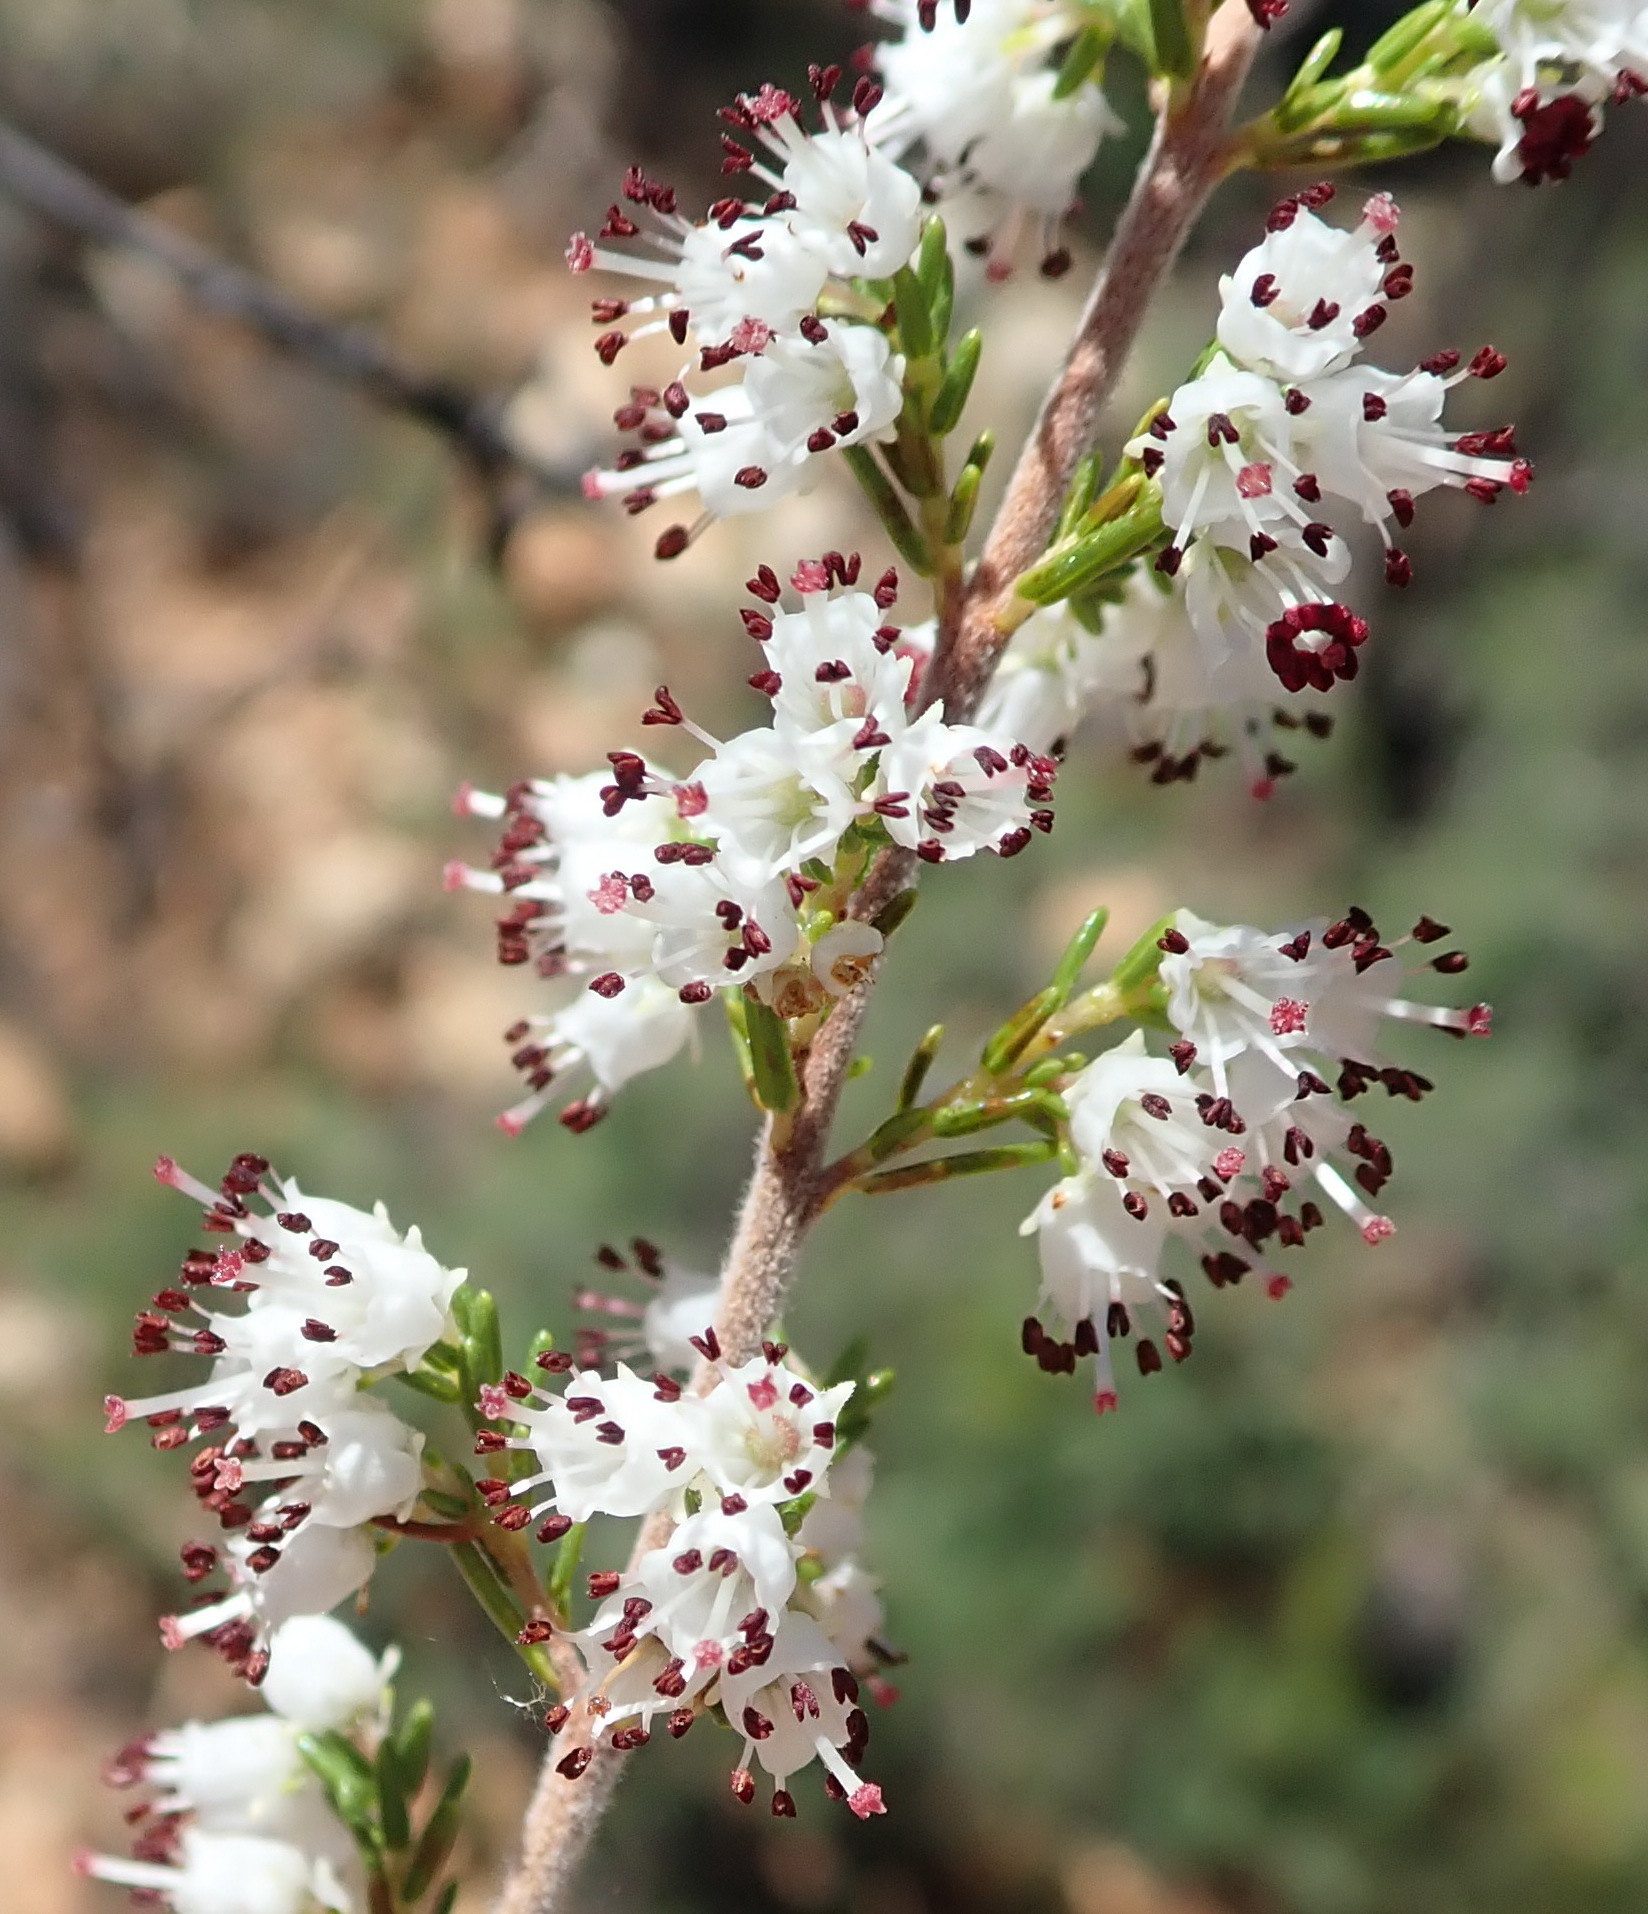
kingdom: Plantae
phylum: Tracheophyta
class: Magnoliopsida
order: Ericales
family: Ericaceae
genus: Erica
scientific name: Erica trivialis
